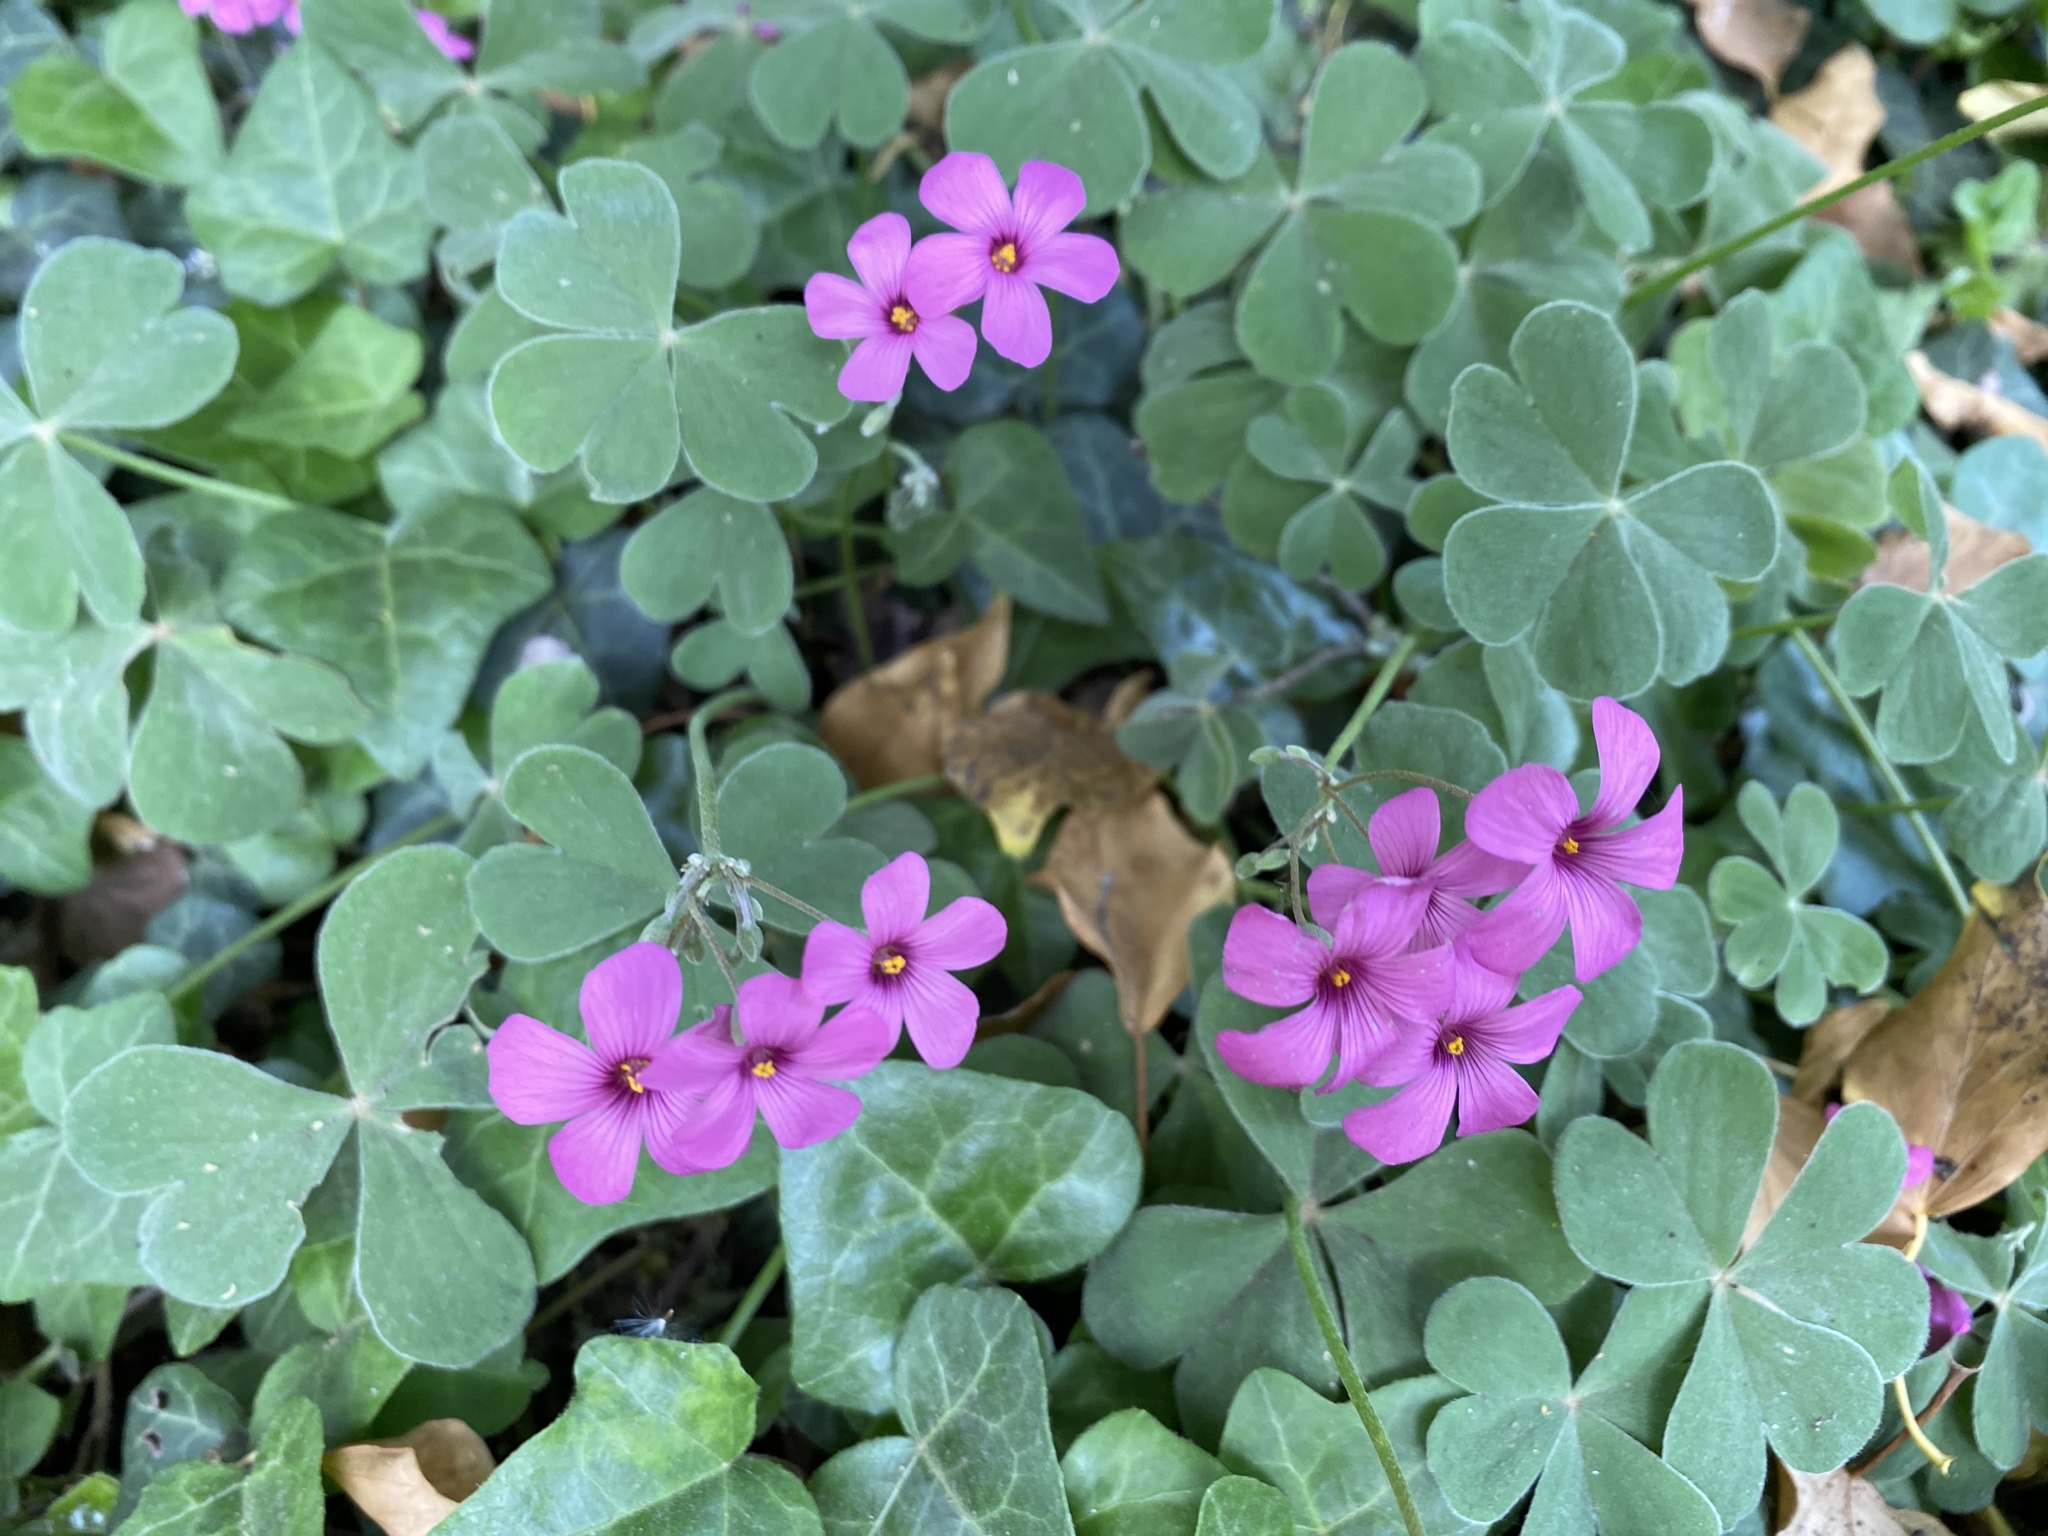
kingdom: Plantae
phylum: Tracheophyta
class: Magnoliopsida
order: Oxalidales
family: Oxalidaceae
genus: Oxalis
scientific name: Oxalis articulata
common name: Pink-sorrel
